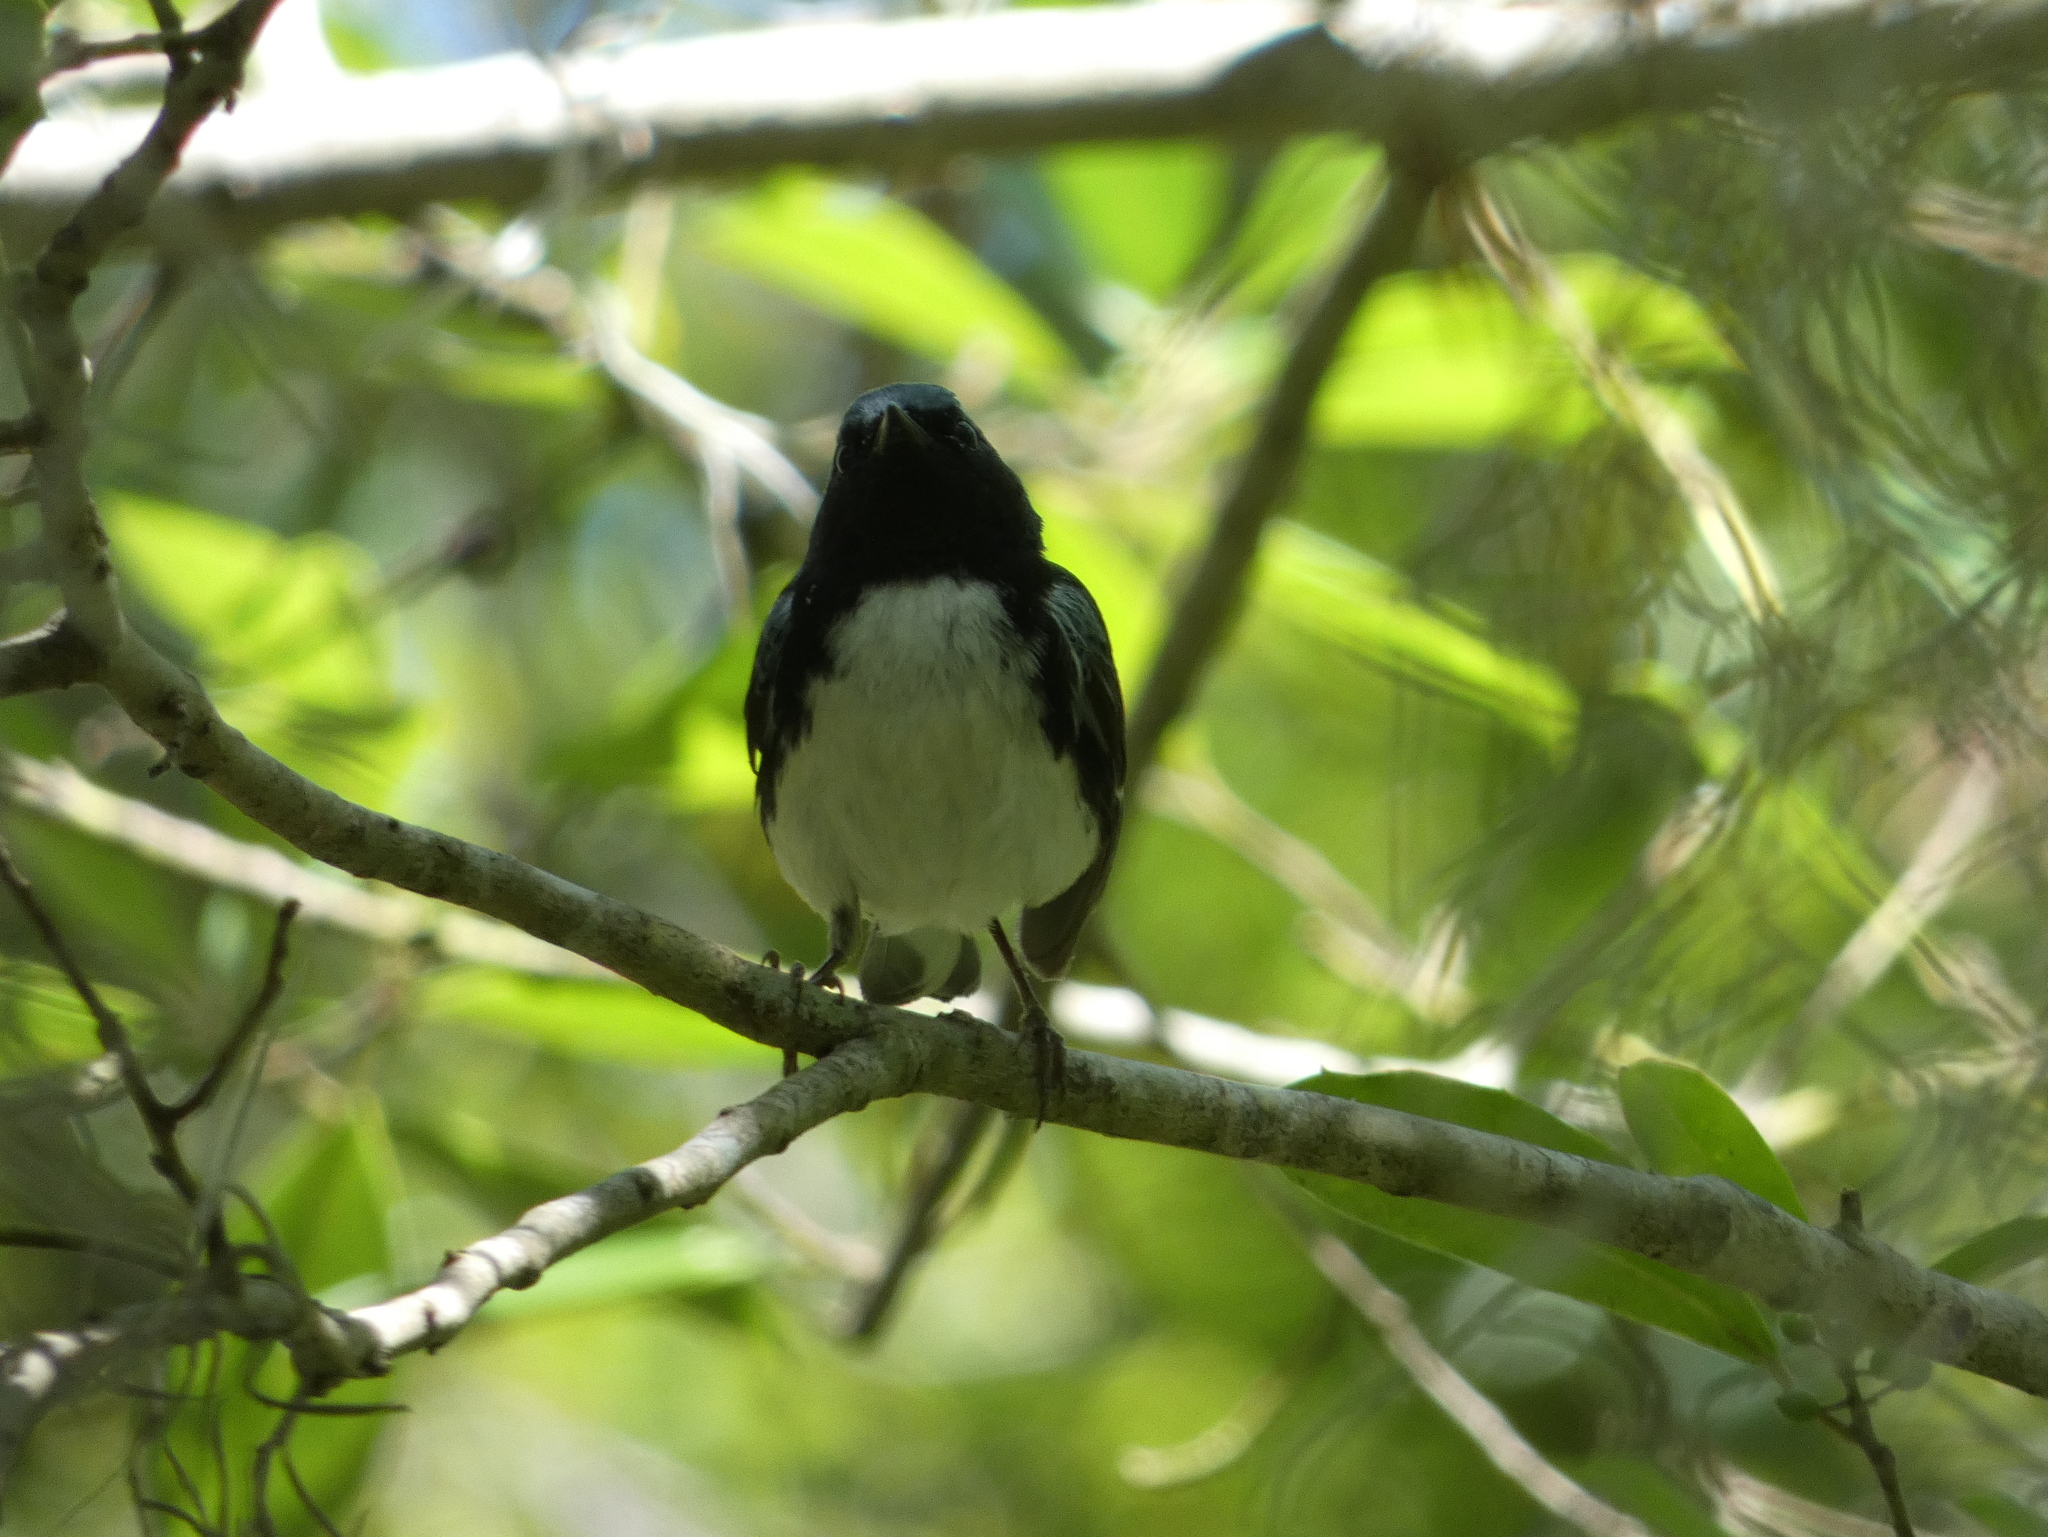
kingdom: Animalia
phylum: Chordata
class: Aves
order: Passeriformes
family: Parulidae
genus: Setophaga
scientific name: Setophaga caerulescens
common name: Black-throated blue warbler
